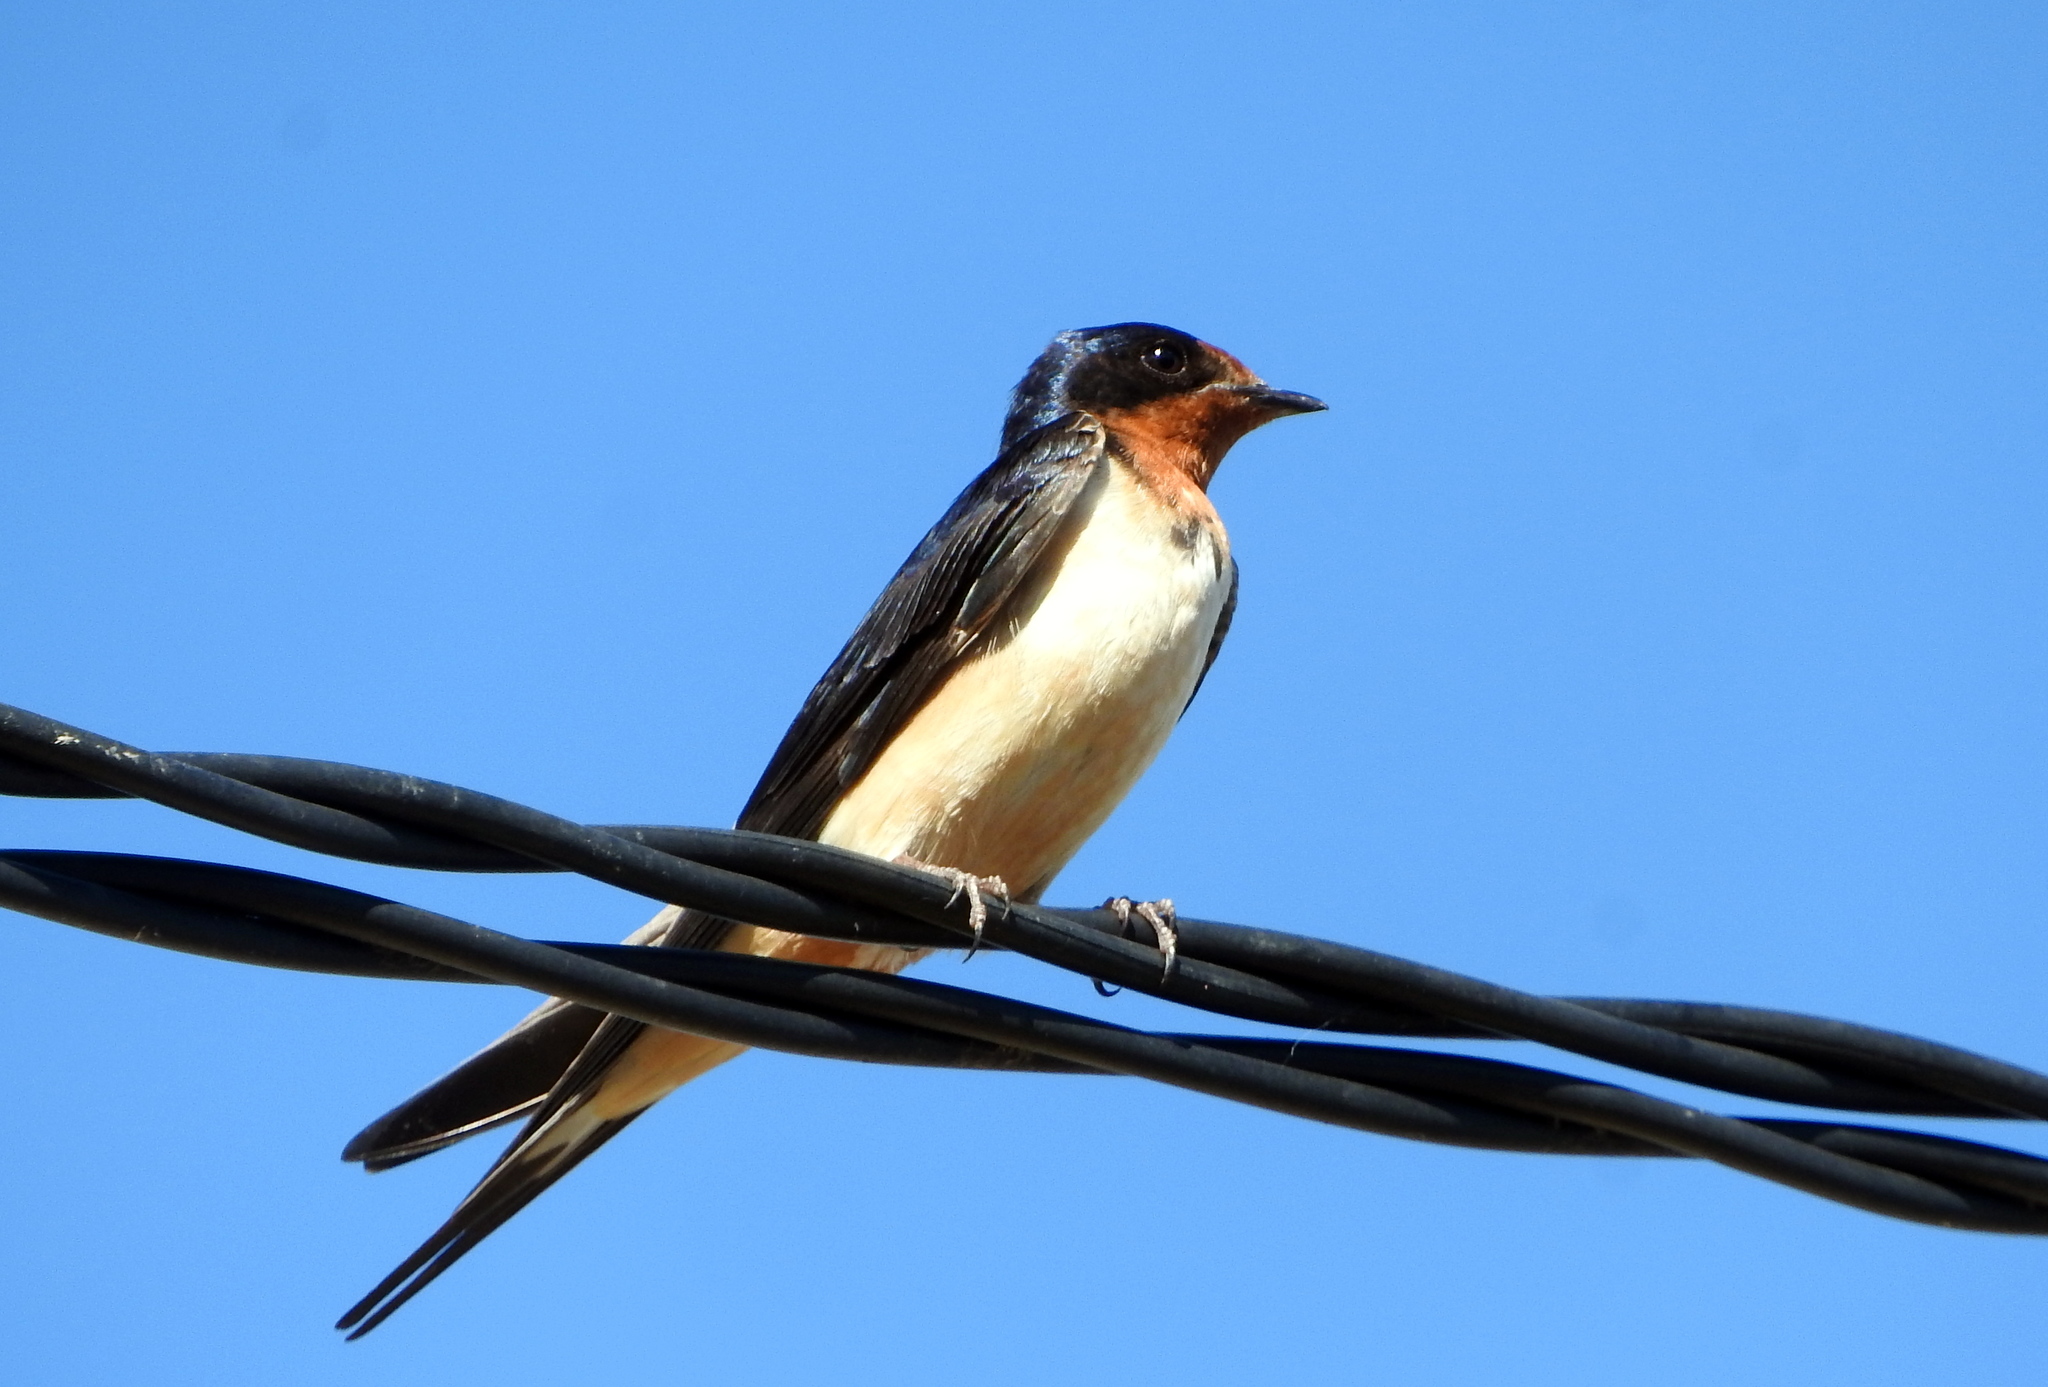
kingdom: Animalia
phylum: Chordata
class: Aves
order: Passeriformes
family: Hirundinidae
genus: Hirundo
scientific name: Hirundo rustica
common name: Barn swallow
